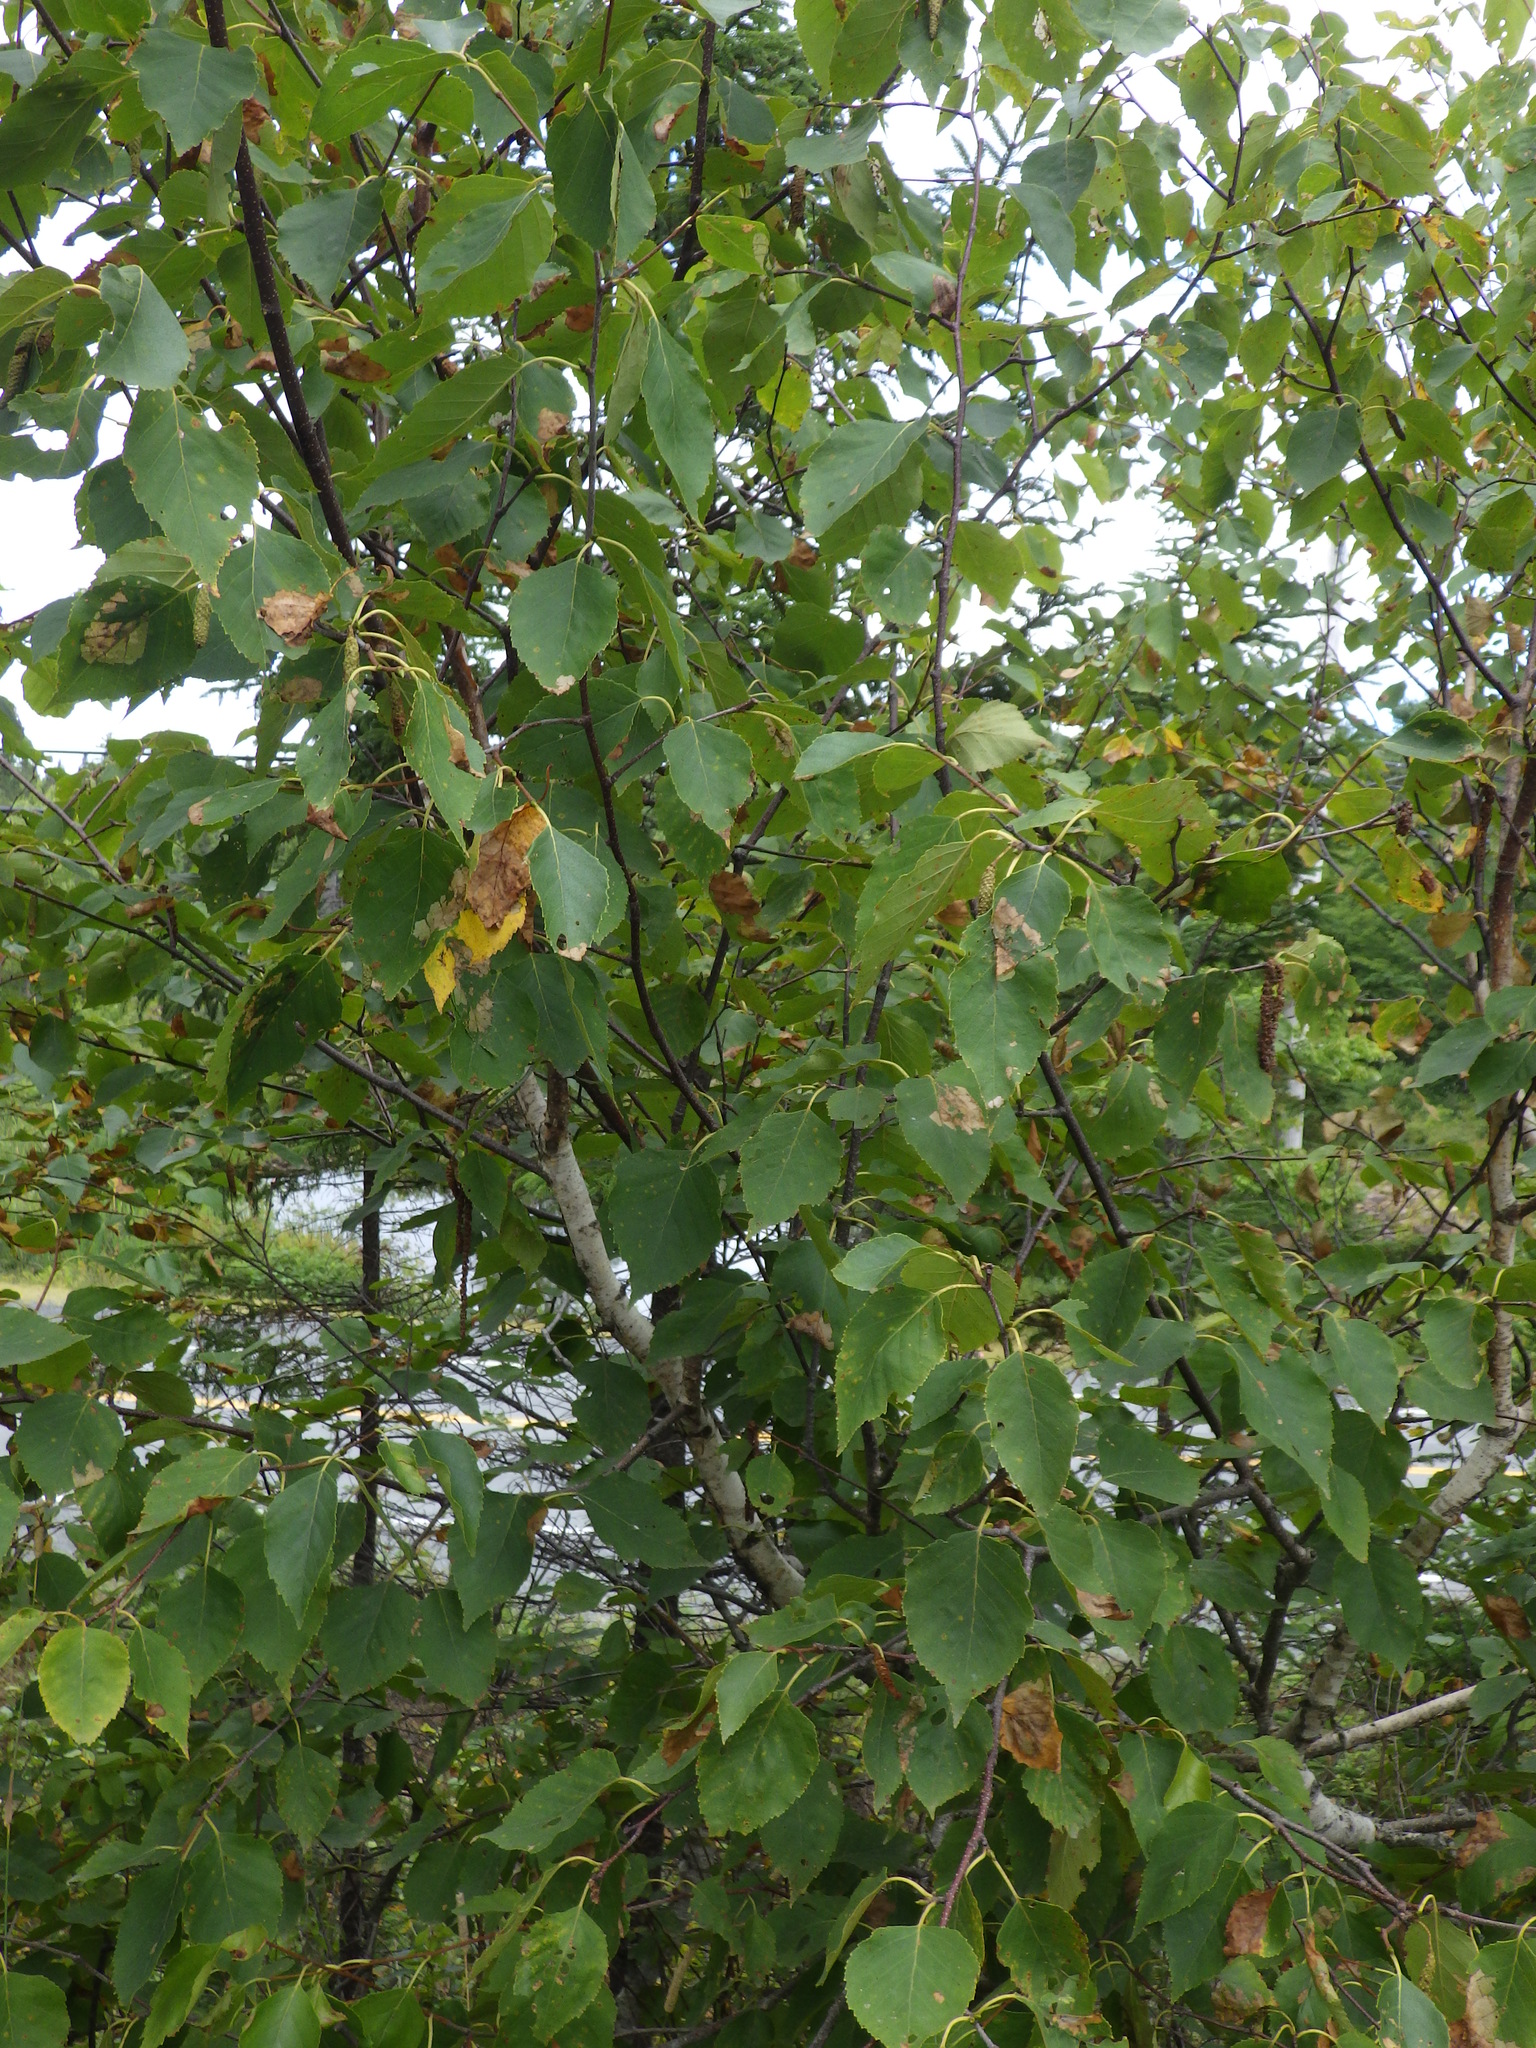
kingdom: Plantae
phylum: Tracheophyta
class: Magnoliopsida
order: Fagales
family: Betulaceae
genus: Betula
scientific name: Betula papyrifera
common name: Paper birch
